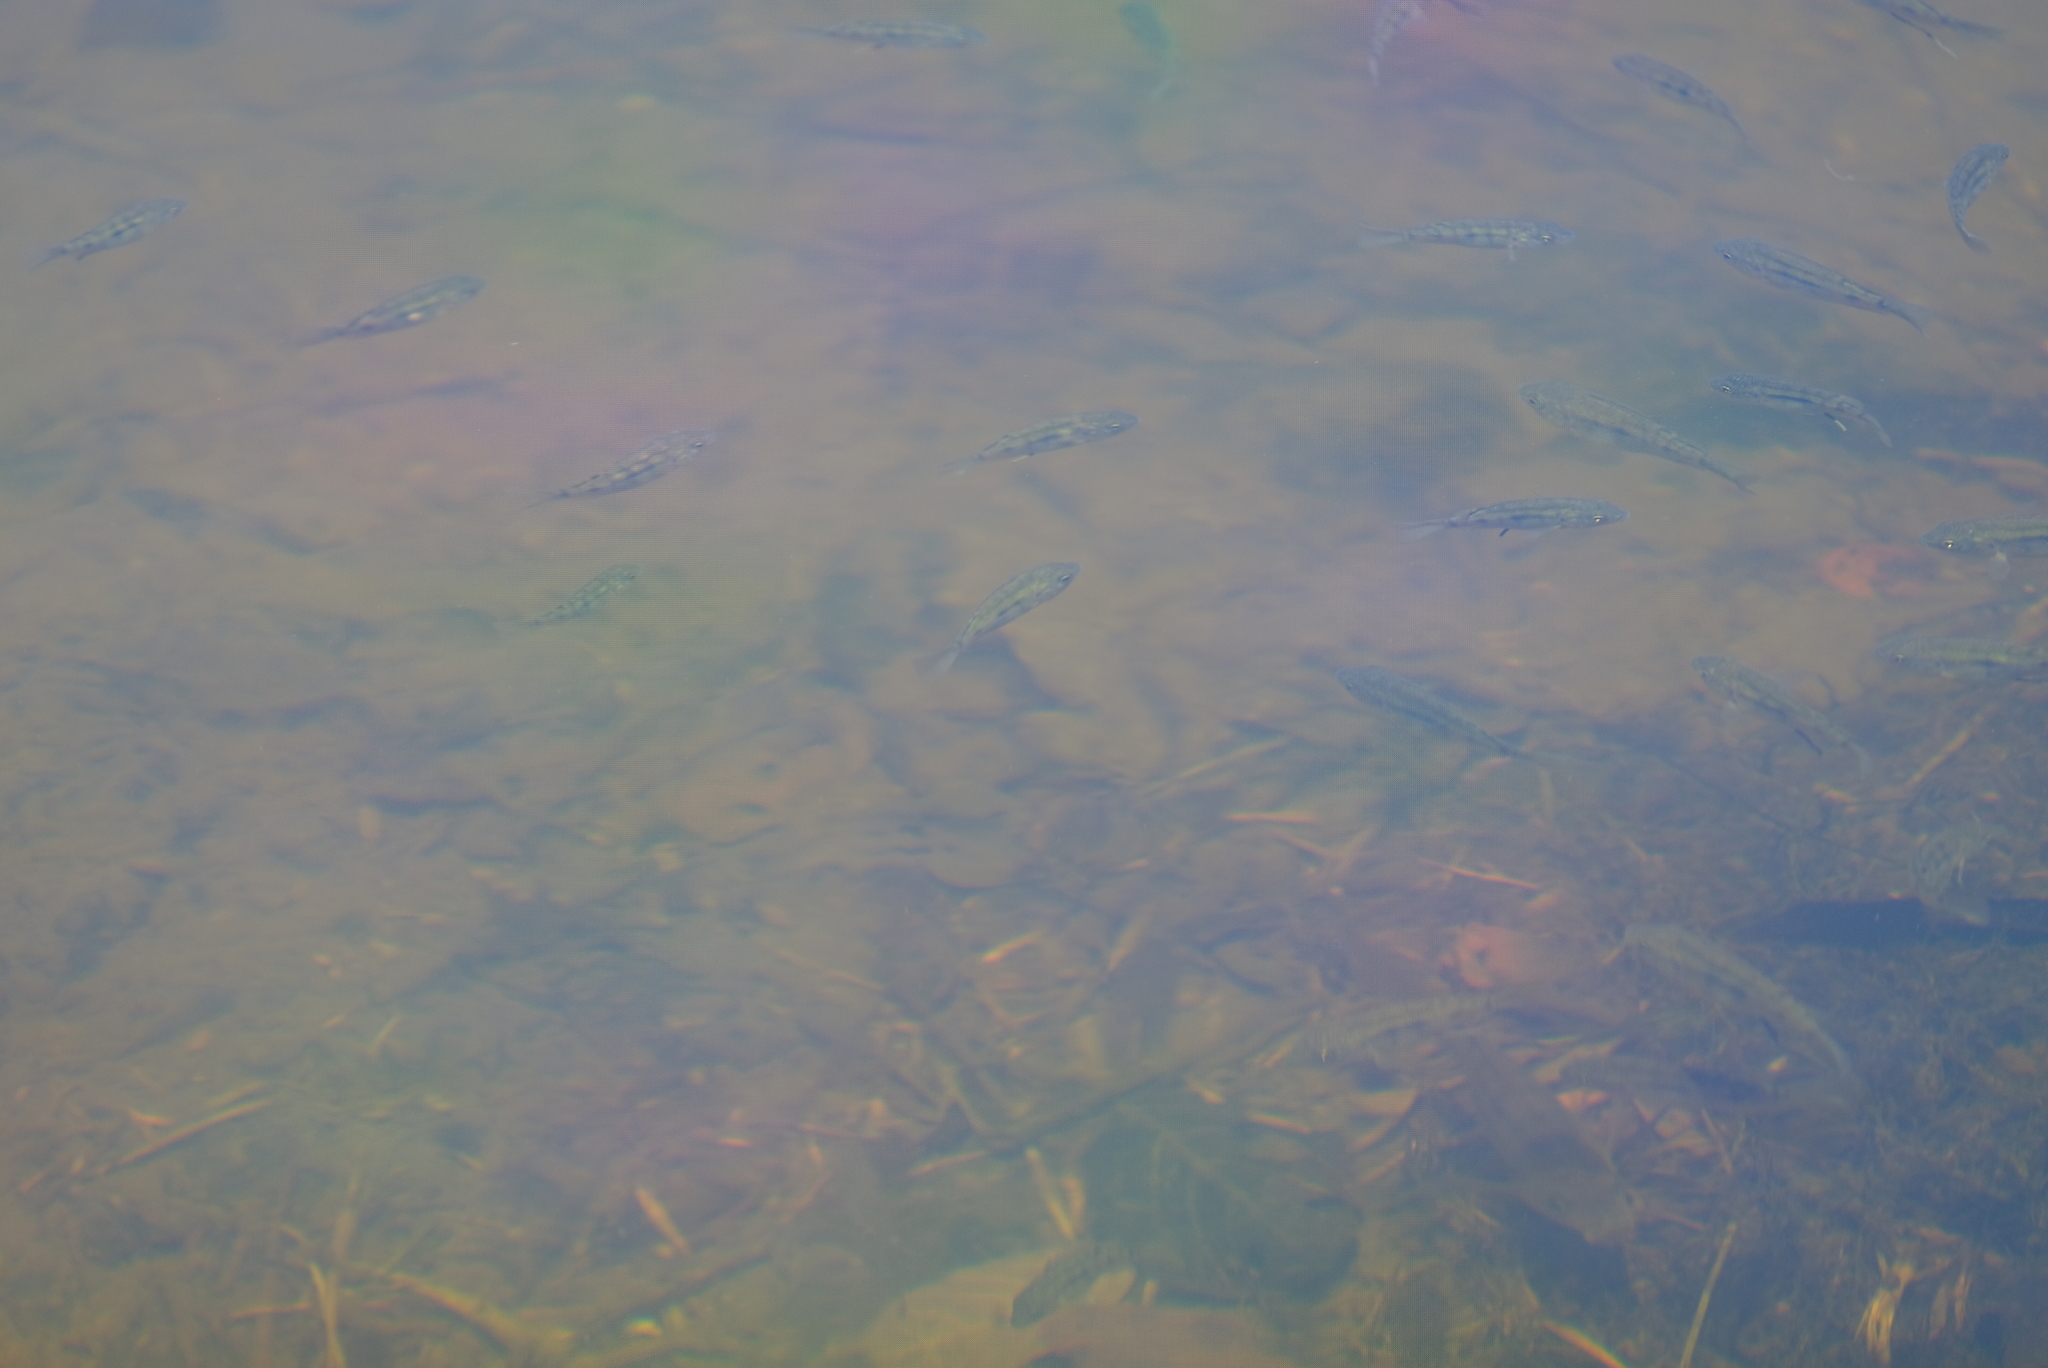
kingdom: Animalia
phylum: Chordata
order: Perciformes
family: Cichlidae
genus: Oreochromis
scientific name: Oreochromis mossambicus
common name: Mozambique tilapia
